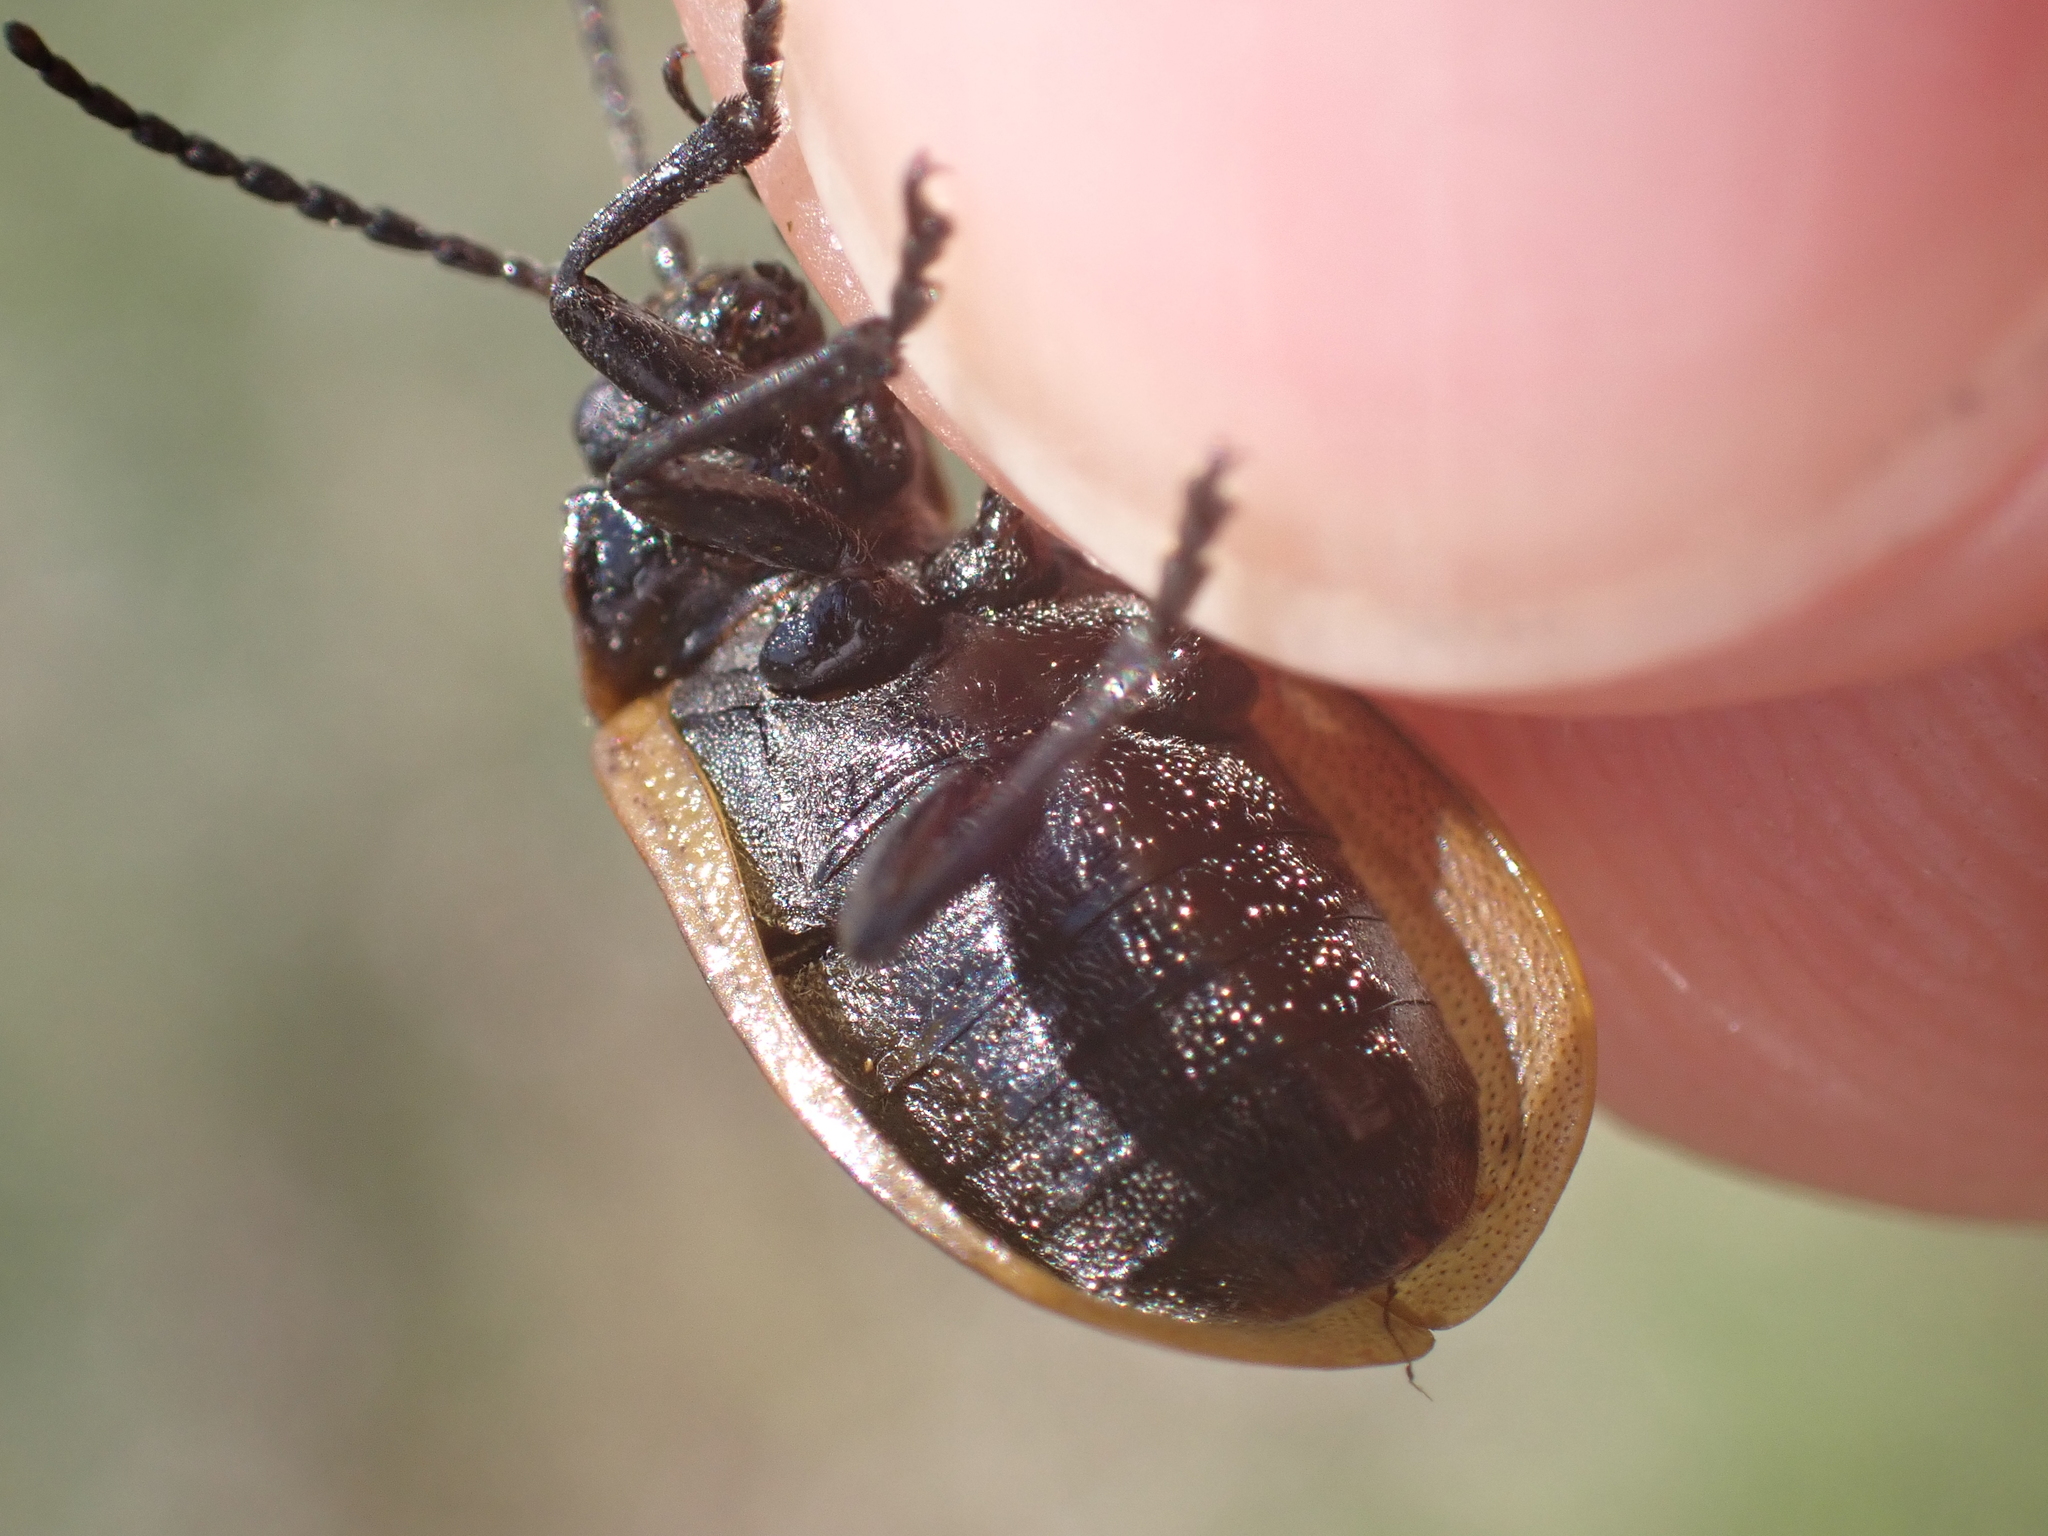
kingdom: Animalia
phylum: Arthropoda
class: Insecta
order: Coleoptera
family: Chrysomelidae
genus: Galeruca
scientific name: Galeruca pomonae
